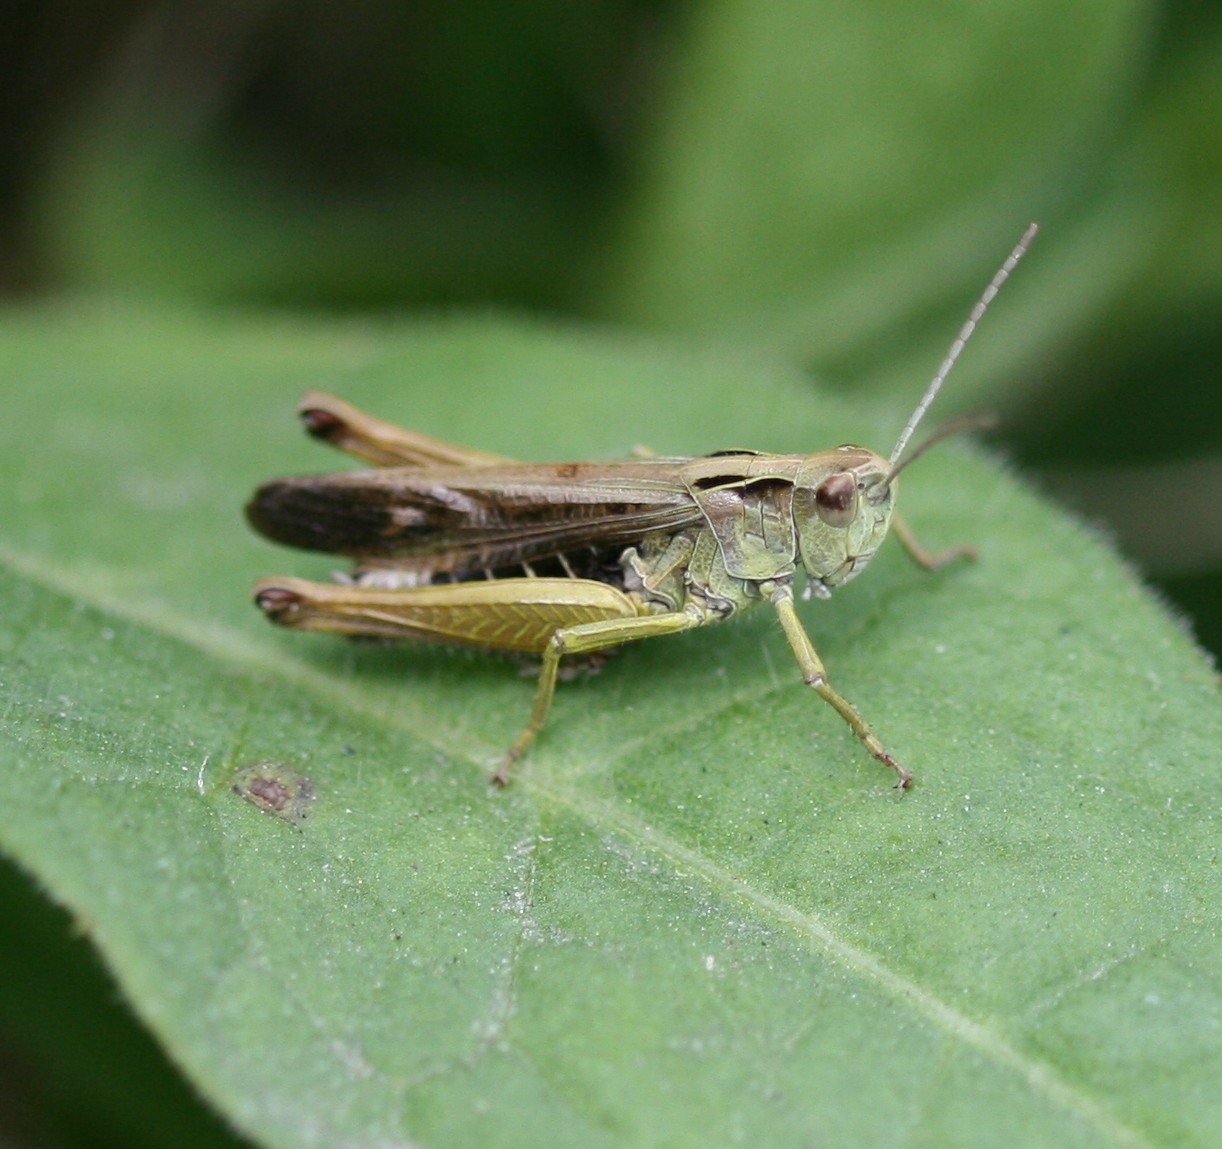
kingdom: Animalia
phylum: Arthropoda
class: Insecta
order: Orthoptera
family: Acrididae
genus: Omocestus
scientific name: Omocestus viridulus
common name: Common green grasshopper
